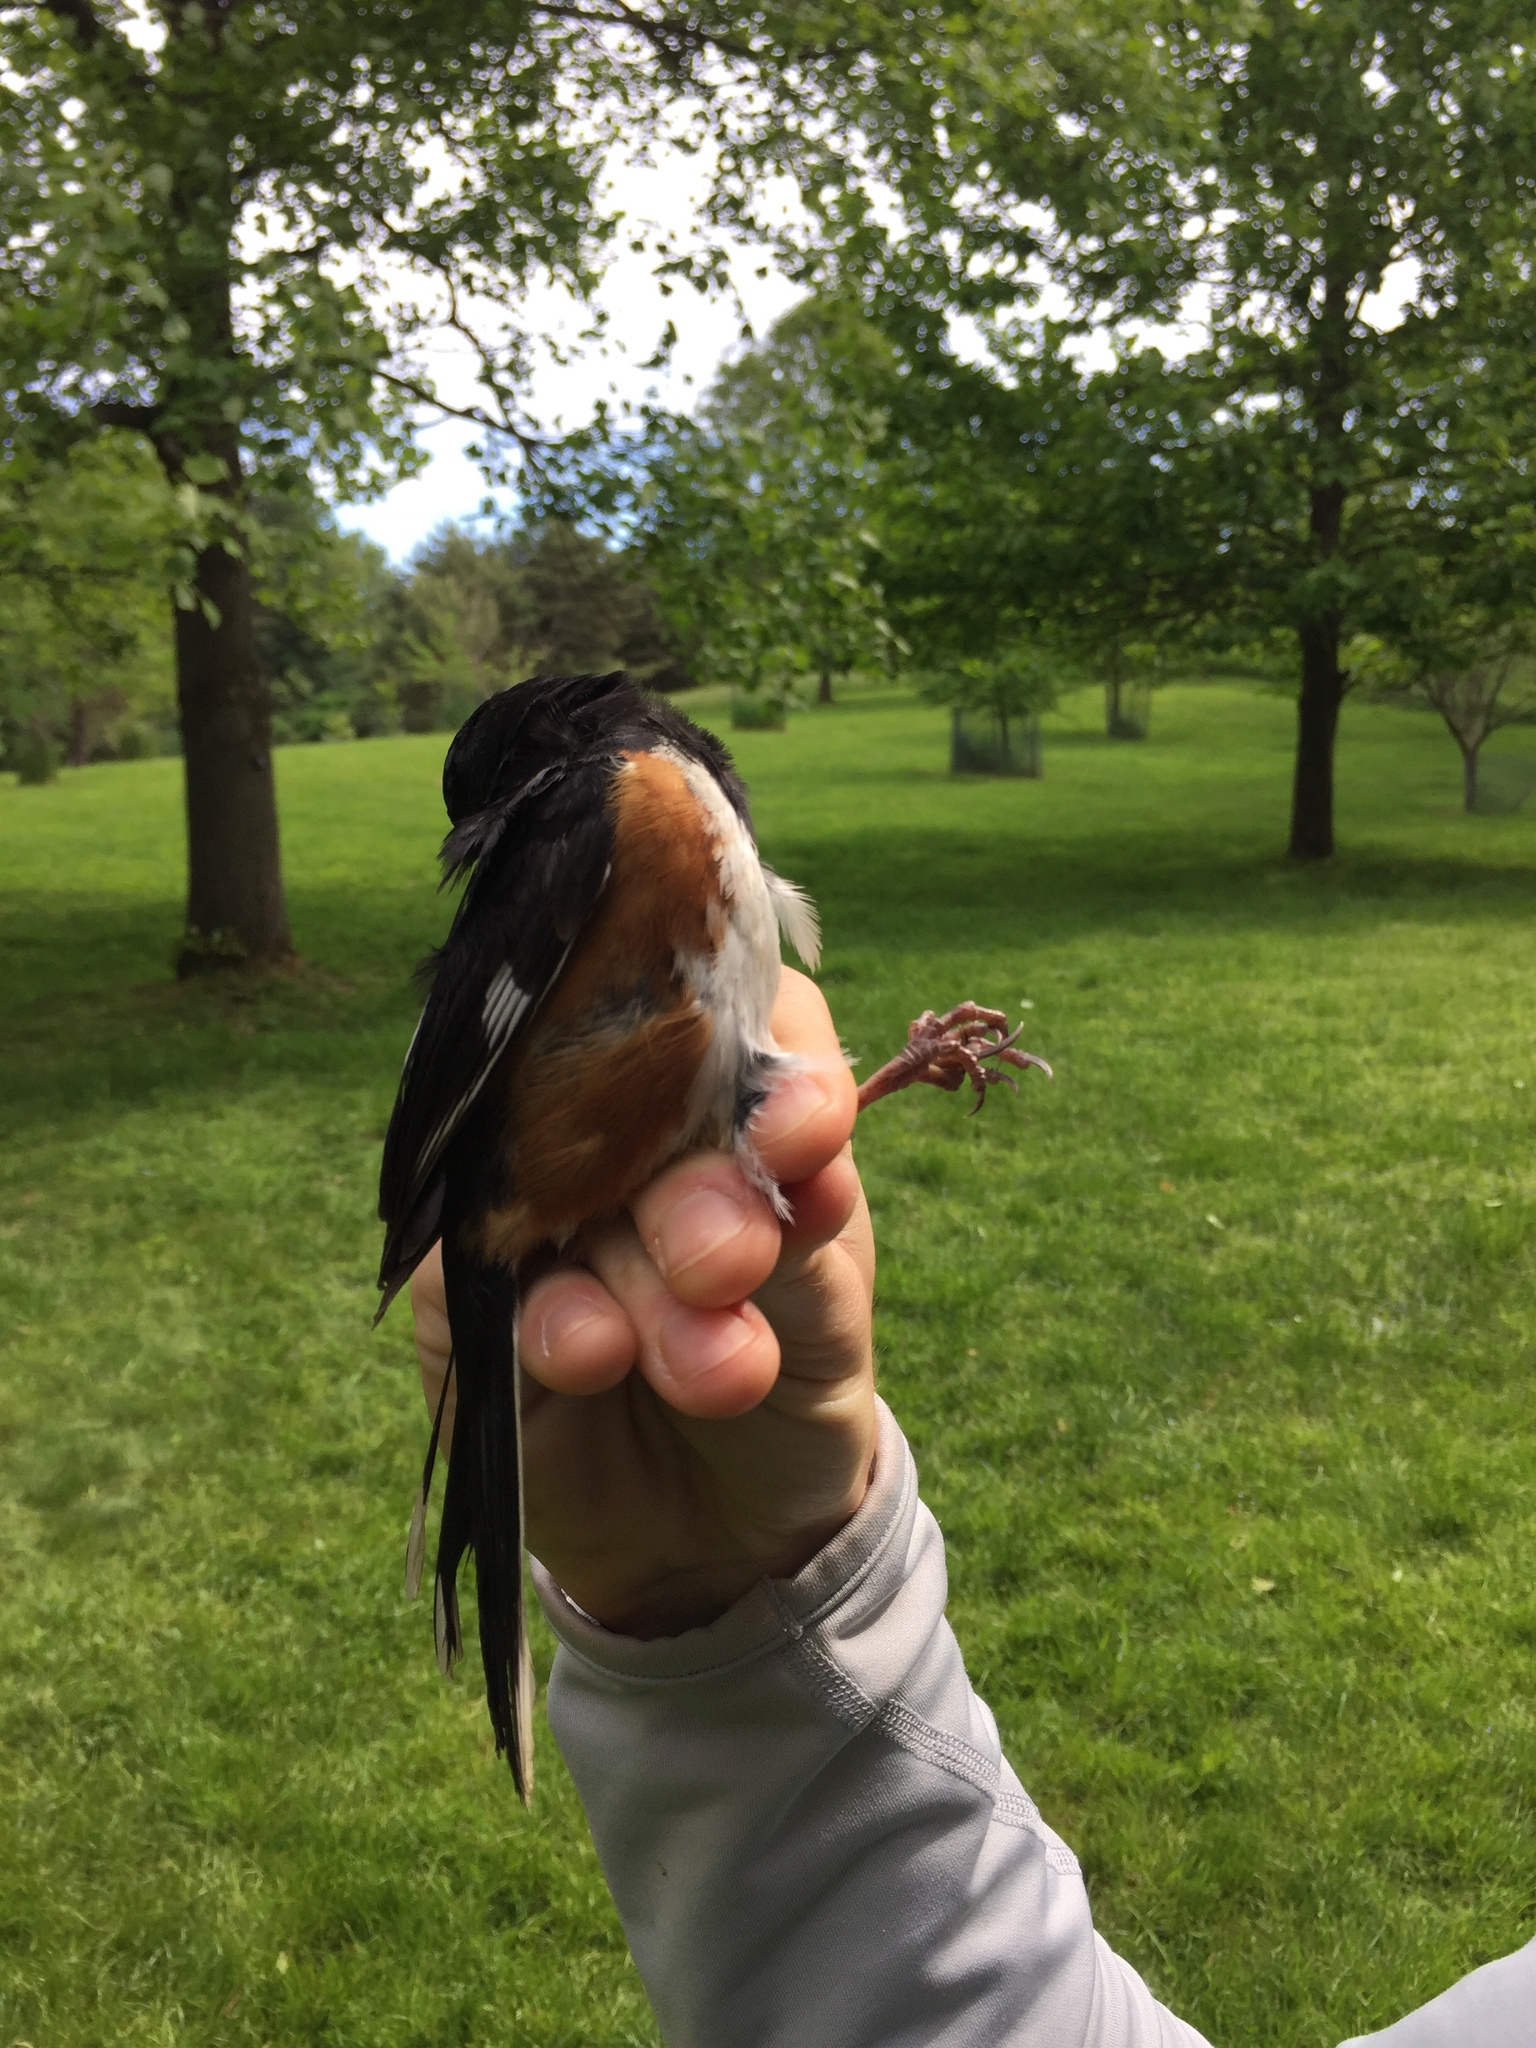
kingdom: Animalia
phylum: Chordata
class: Aves
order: Passeriformes
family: Passerellidae
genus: Pipilo
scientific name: Pipilo erythrophthalmus
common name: Eastern towhee
